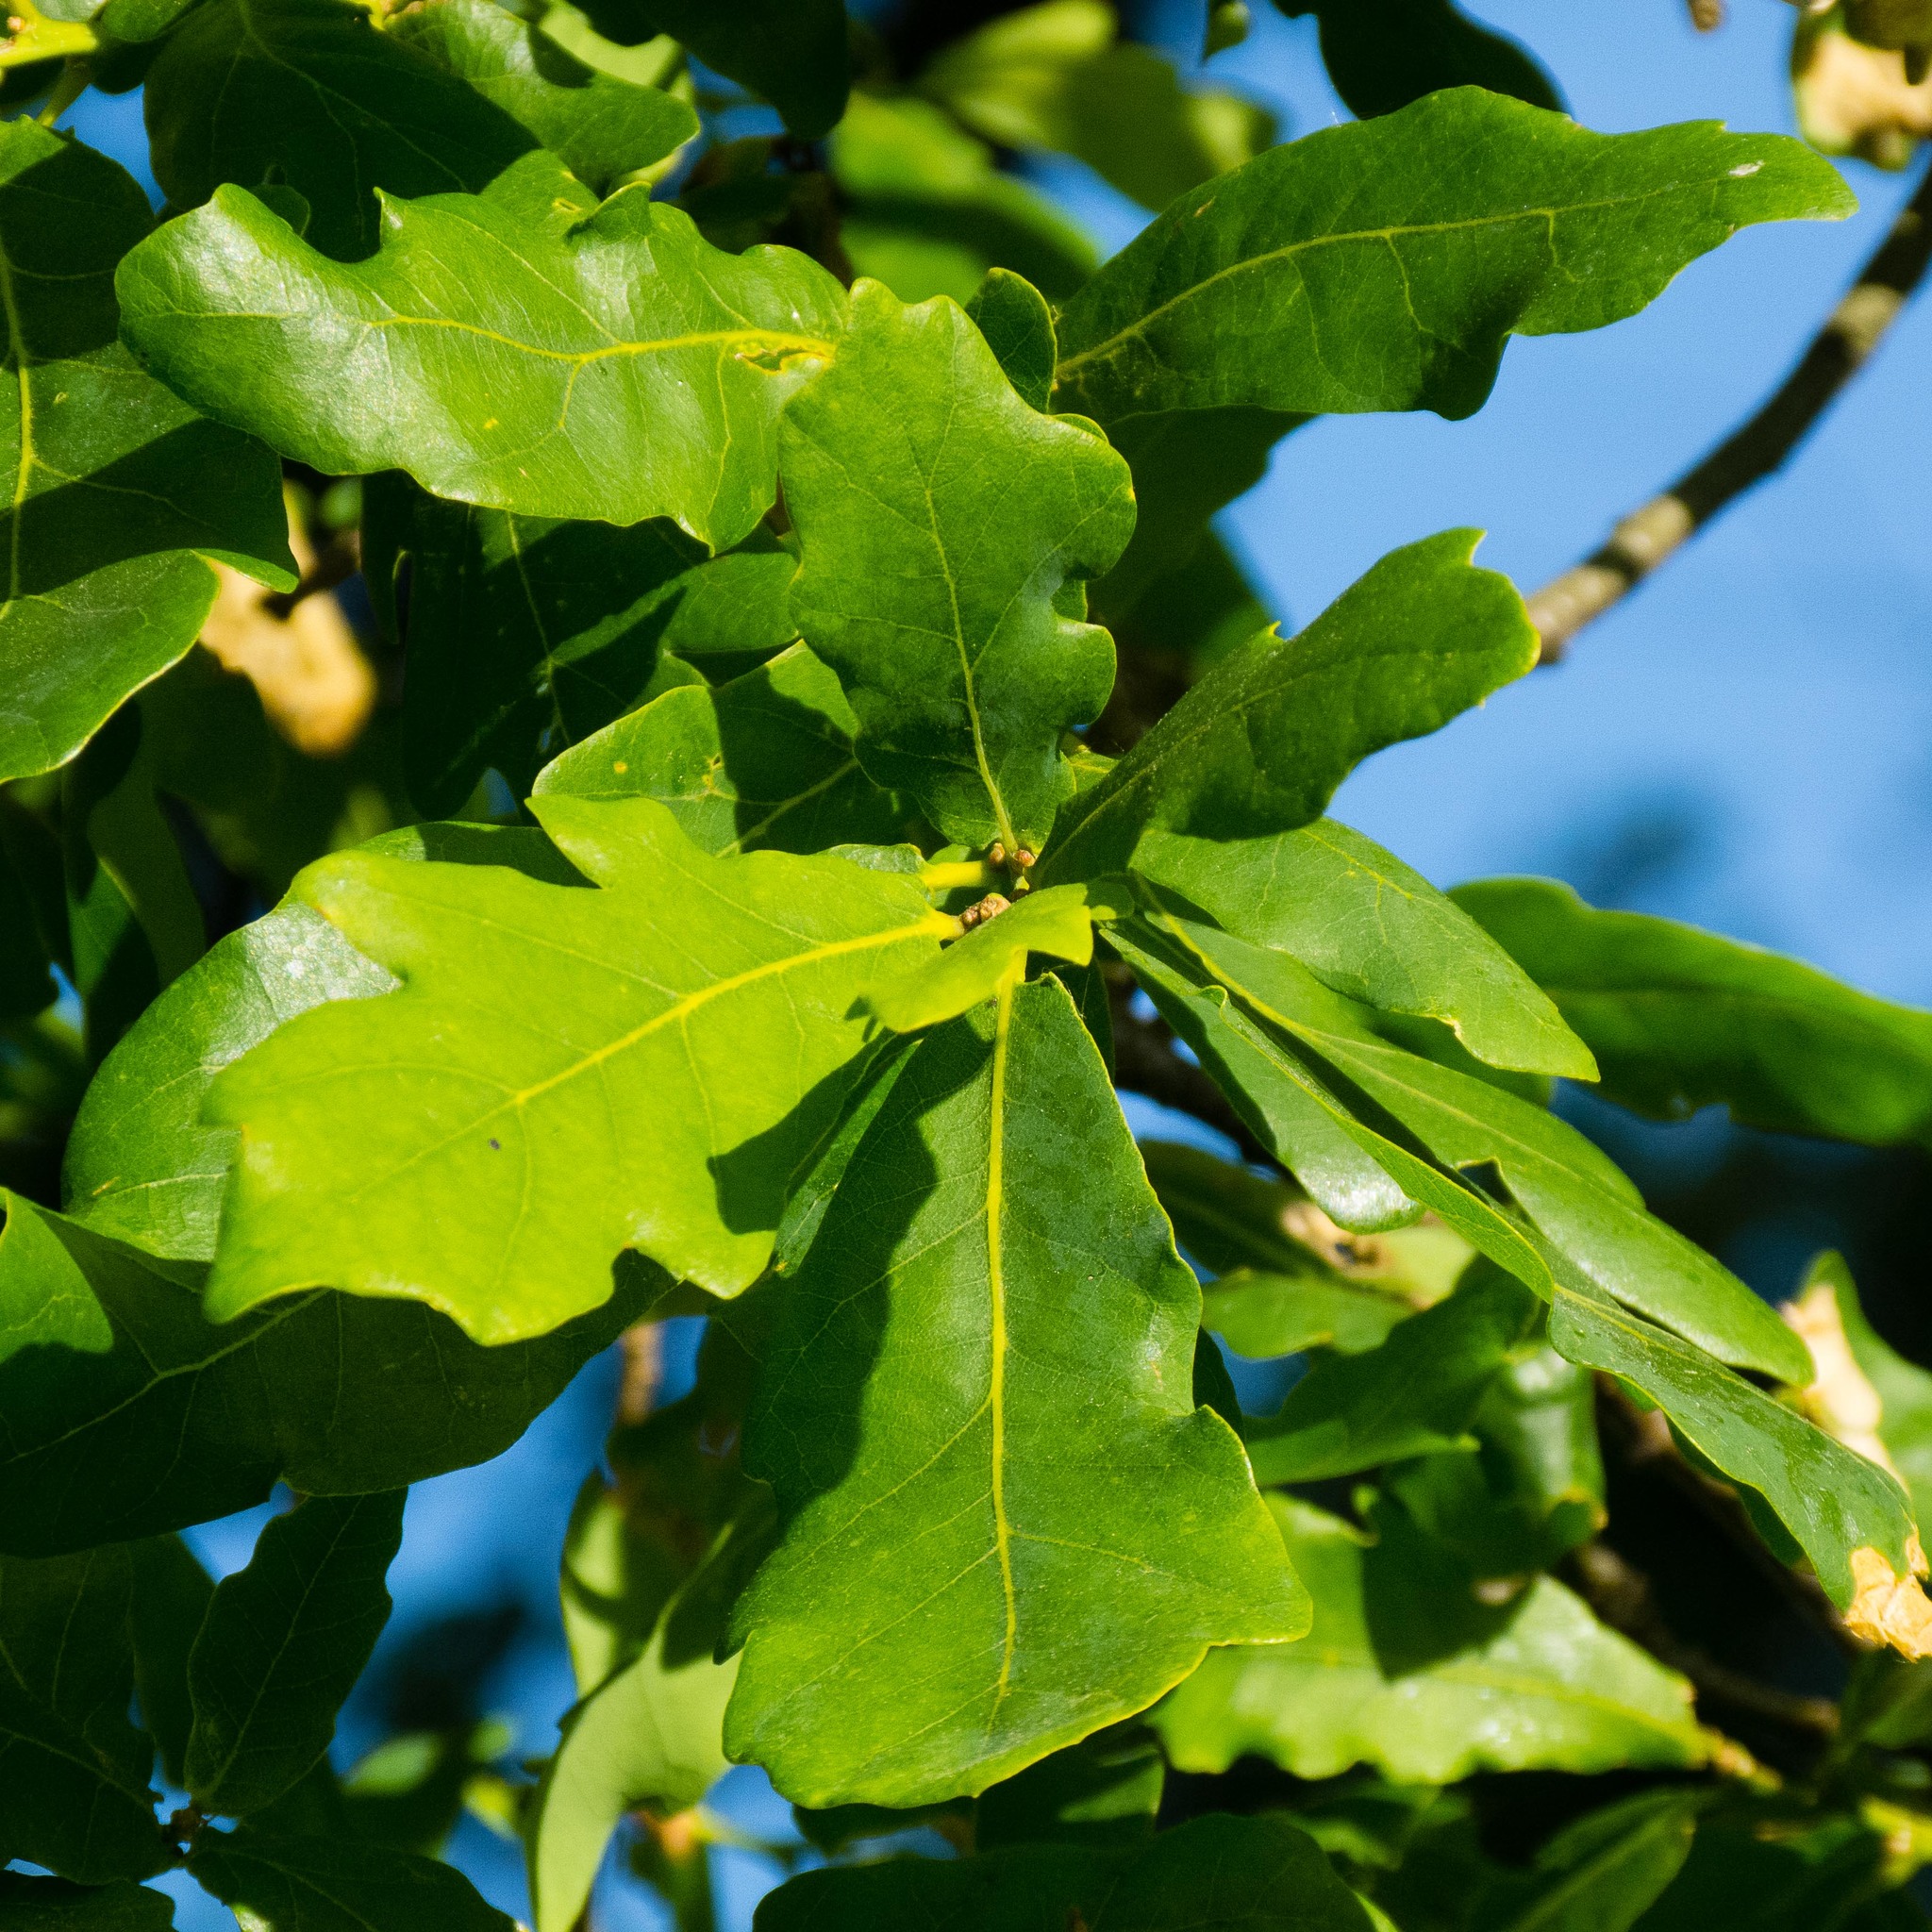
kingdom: Plantae
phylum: Tracheophyta
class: Magnoliopsida
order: Fagales
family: Fagaceae
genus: Quercus
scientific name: Quercus robur
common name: Pedunculate oak
